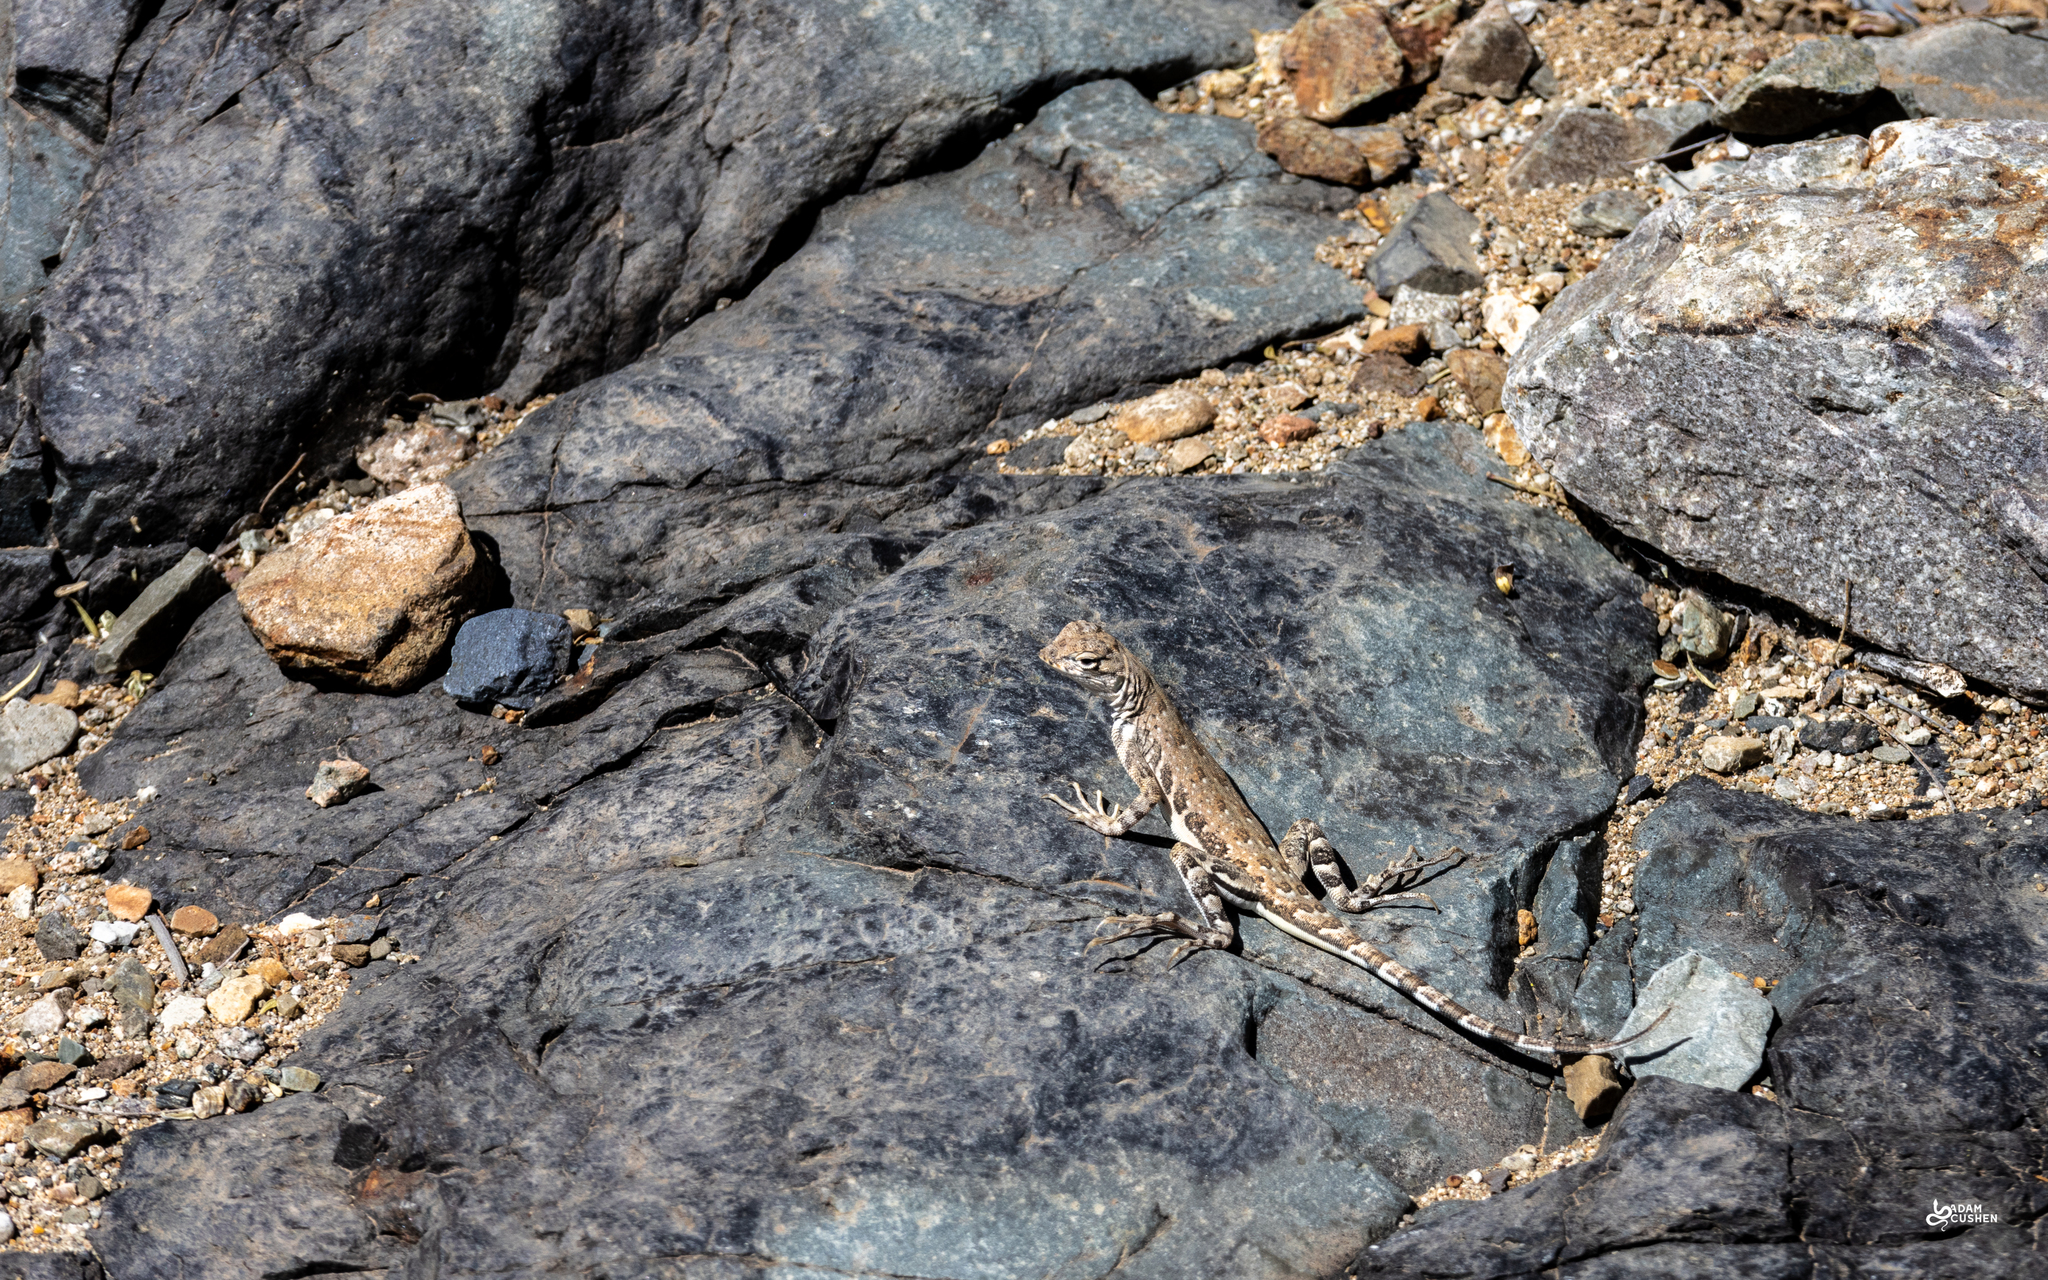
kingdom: Animalia
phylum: Chordata
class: Squamata
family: Phrynosomatidae
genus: Callisaurus
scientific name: Callisaurus draconoides
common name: Zebra-tailed lizard
